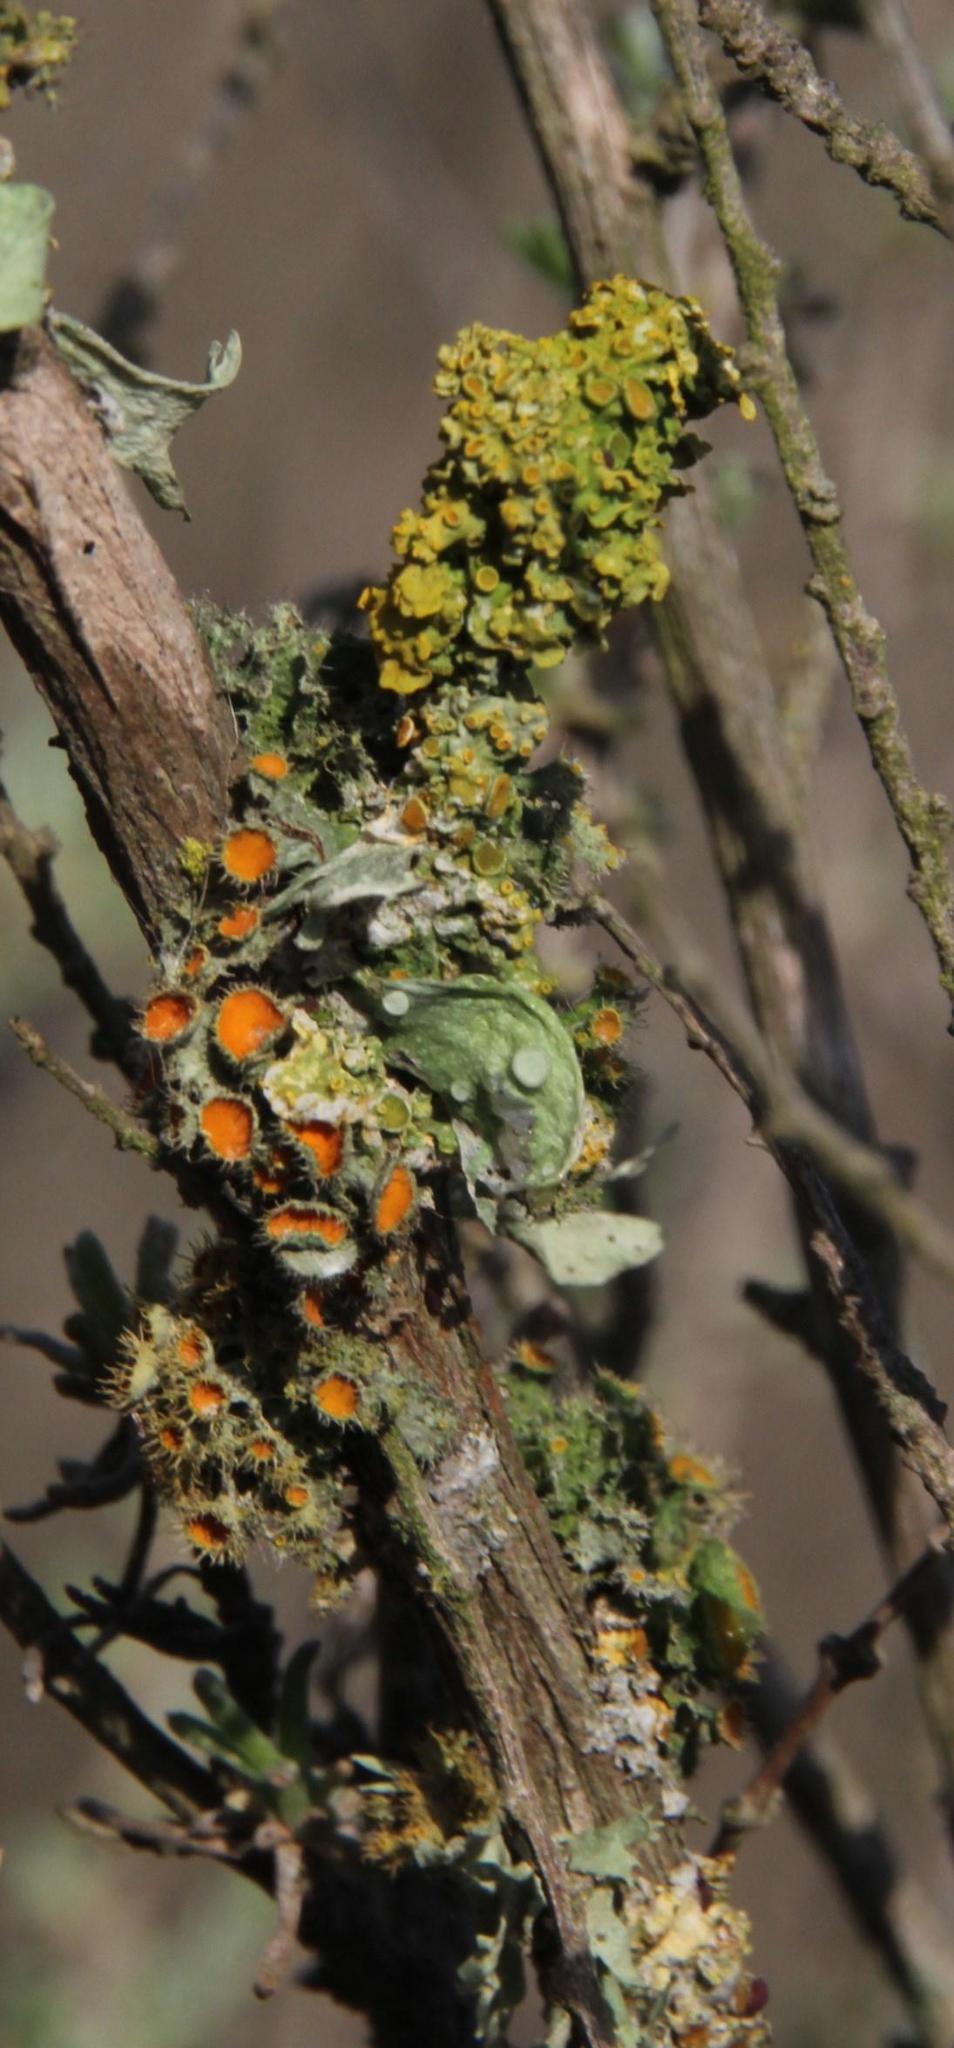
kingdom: Fungi
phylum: Ascomycota
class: Lecanoromycetes
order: Teloschistales
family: Teloschistaceae
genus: Niorma
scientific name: Niorma chrysophthalma
